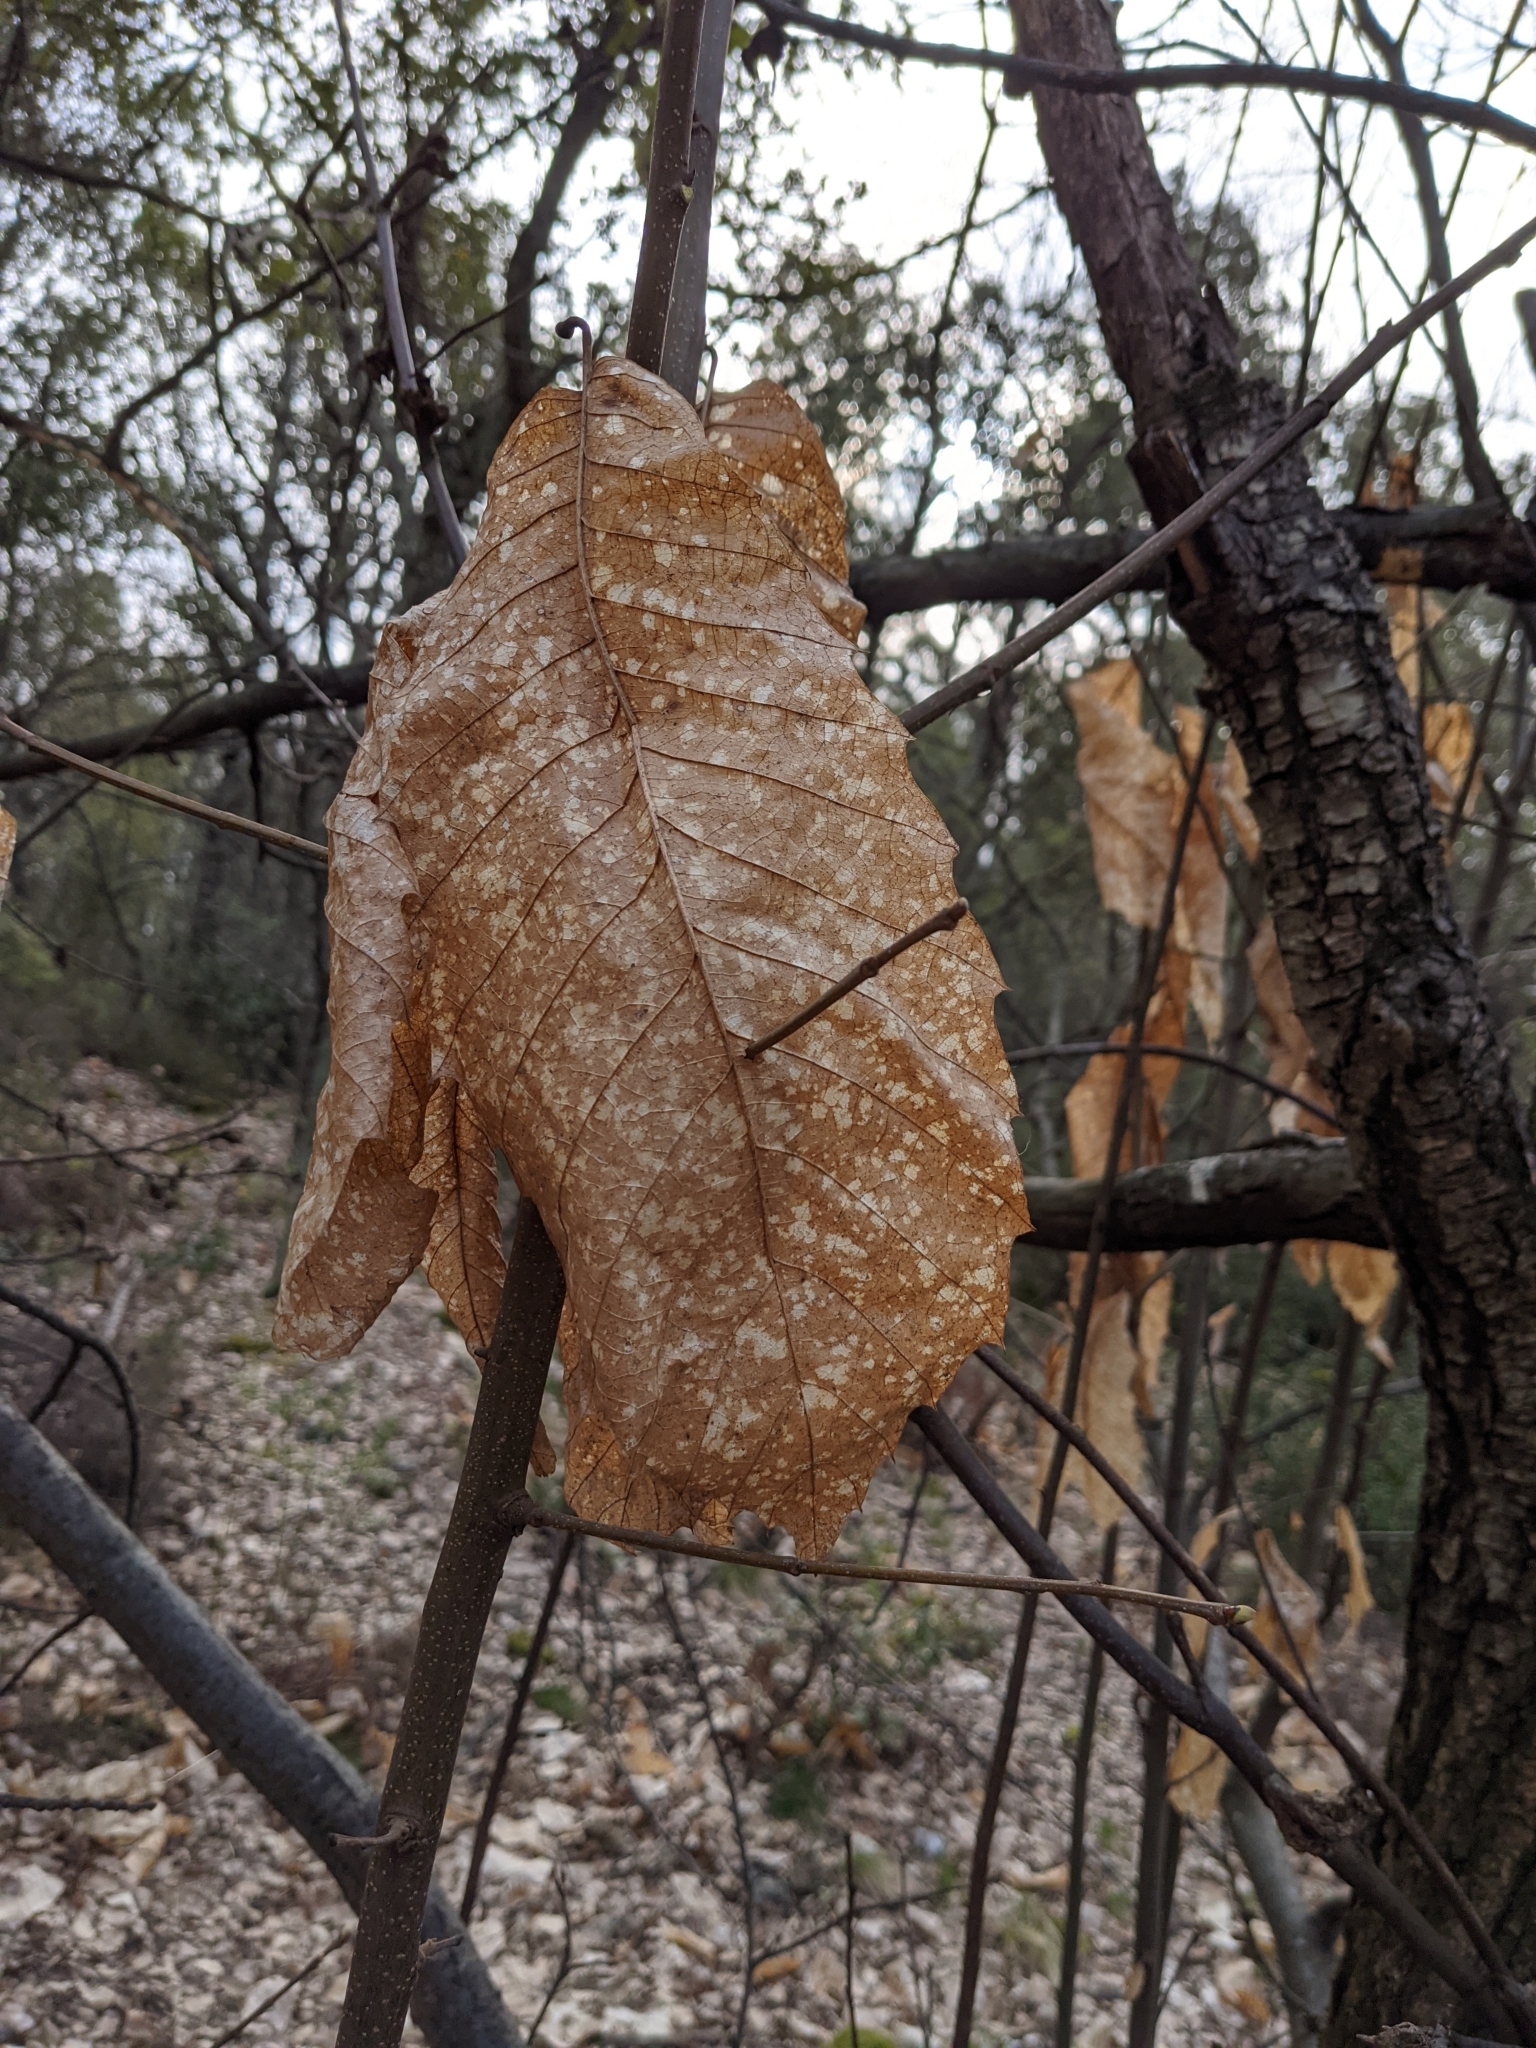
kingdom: Plantae
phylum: Tracheophyta
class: Magnoliopsida
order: Fagales
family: Fagaceae
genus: Castanea
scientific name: Castanea sativa
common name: Sweet chestnut
